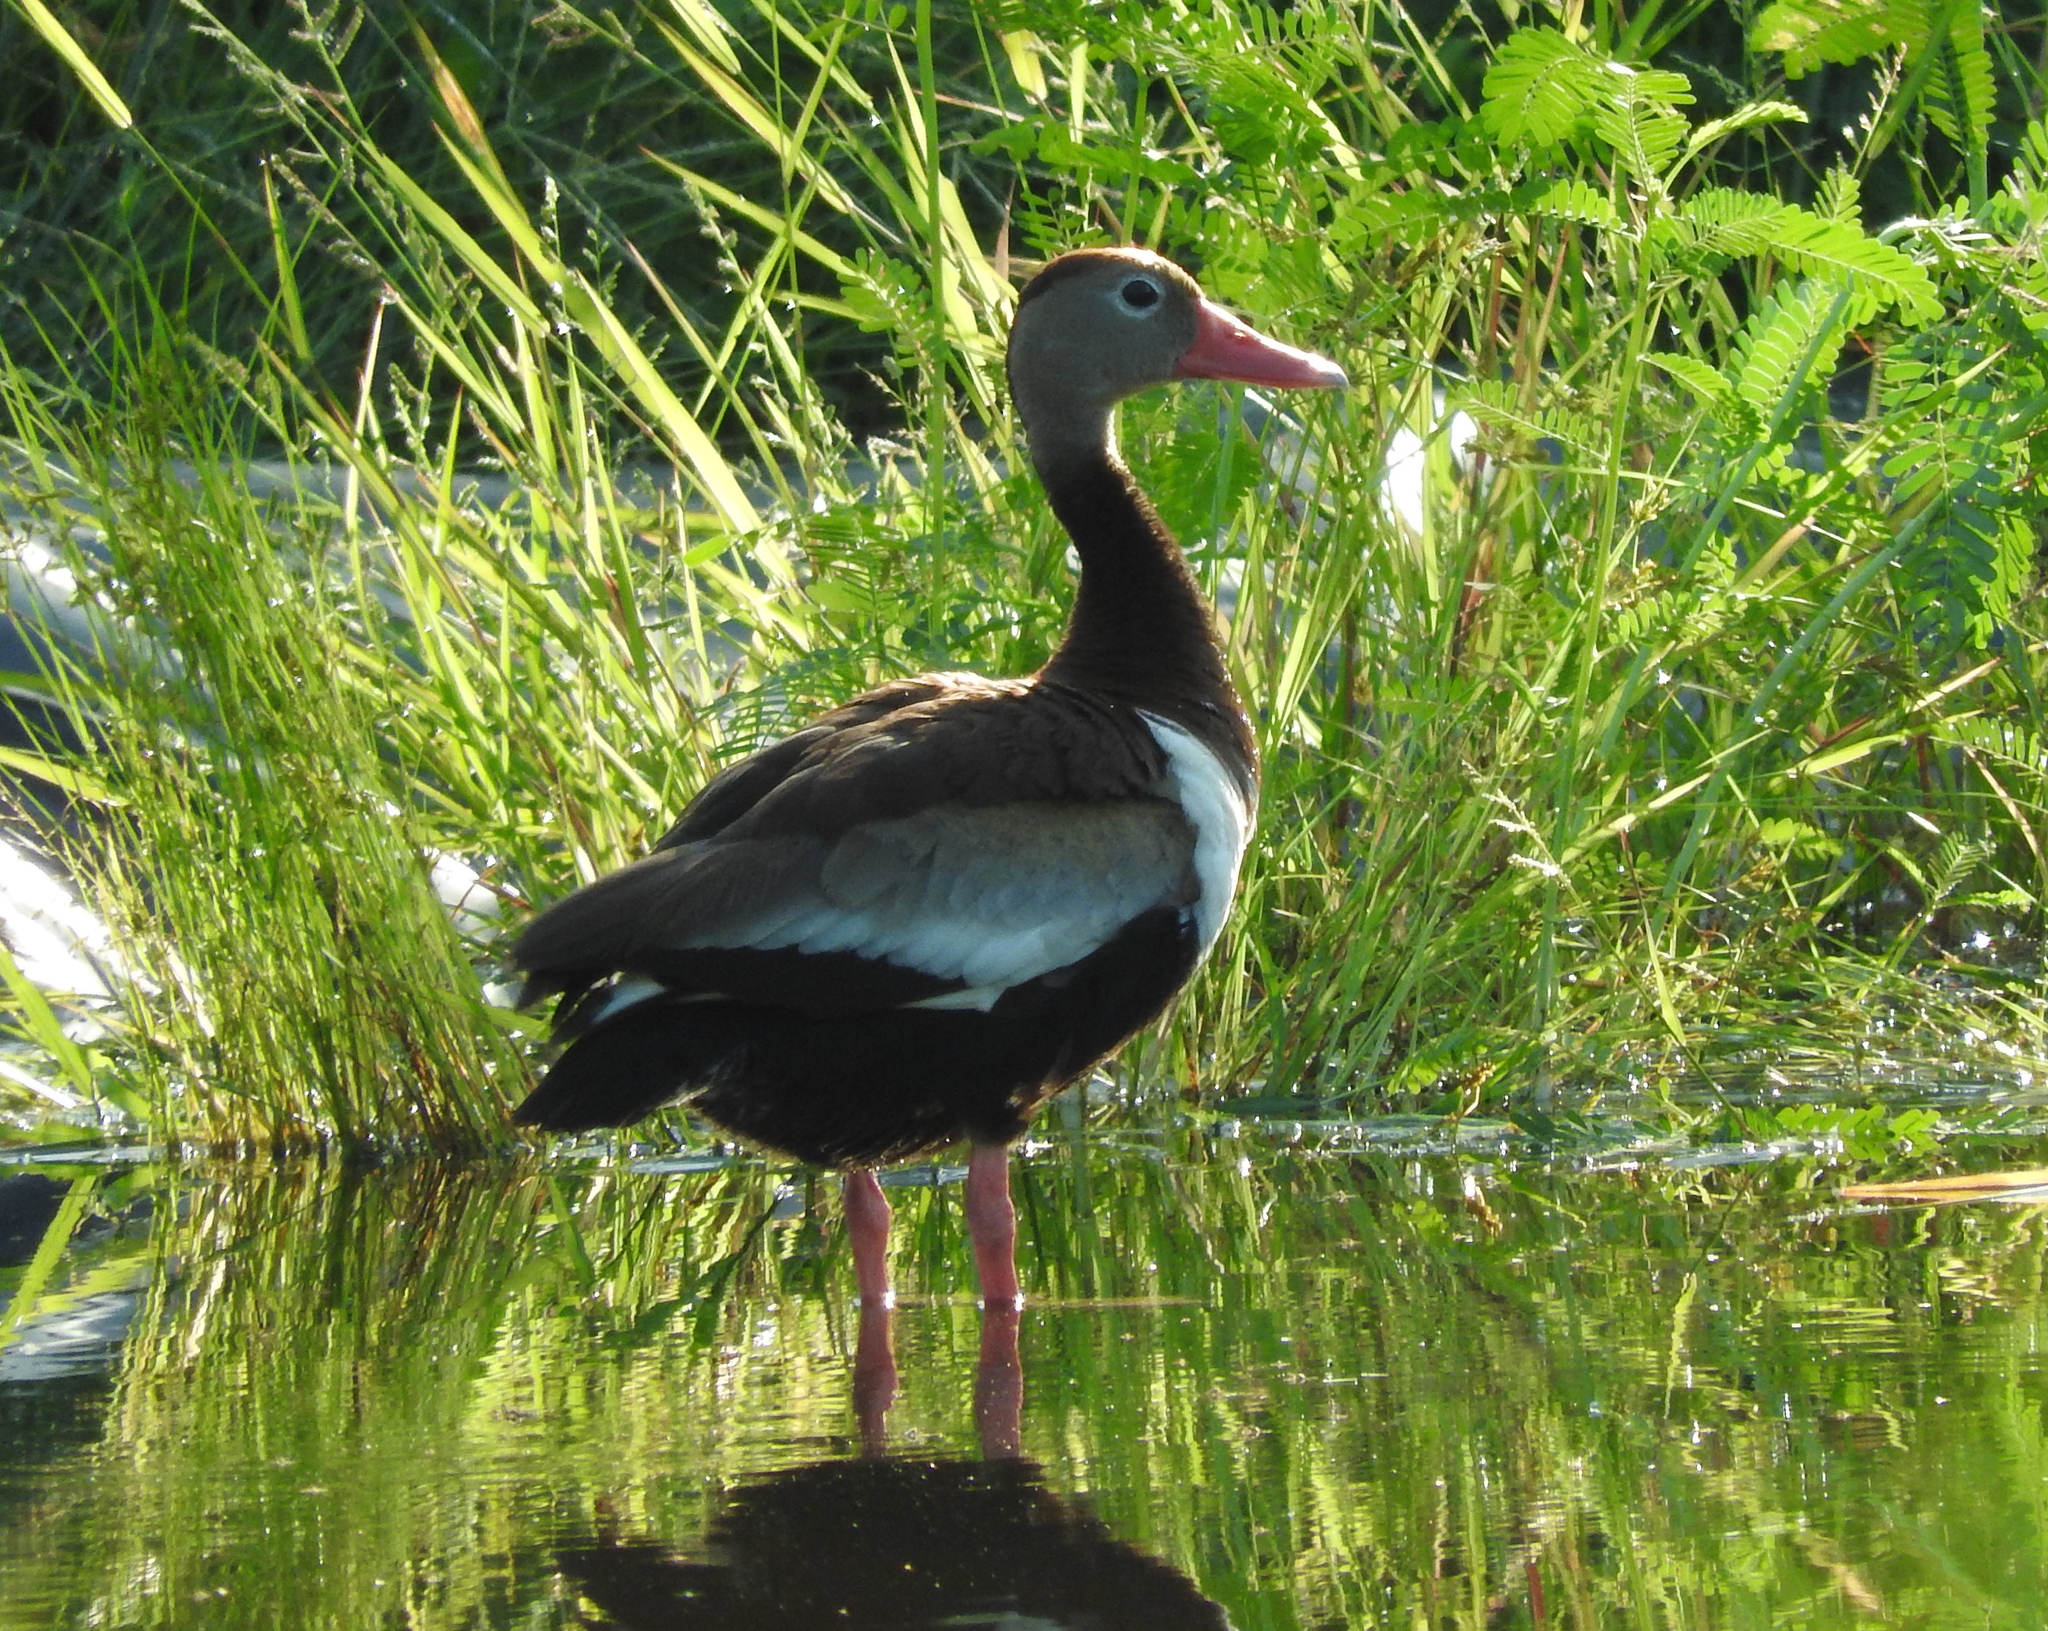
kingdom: Animalia
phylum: Chordata
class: Aves
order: Anseriformes
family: Anatidae
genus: Dendrocygna
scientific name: Dendrocygna autumnalis
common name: Black-bellied whistling duck
